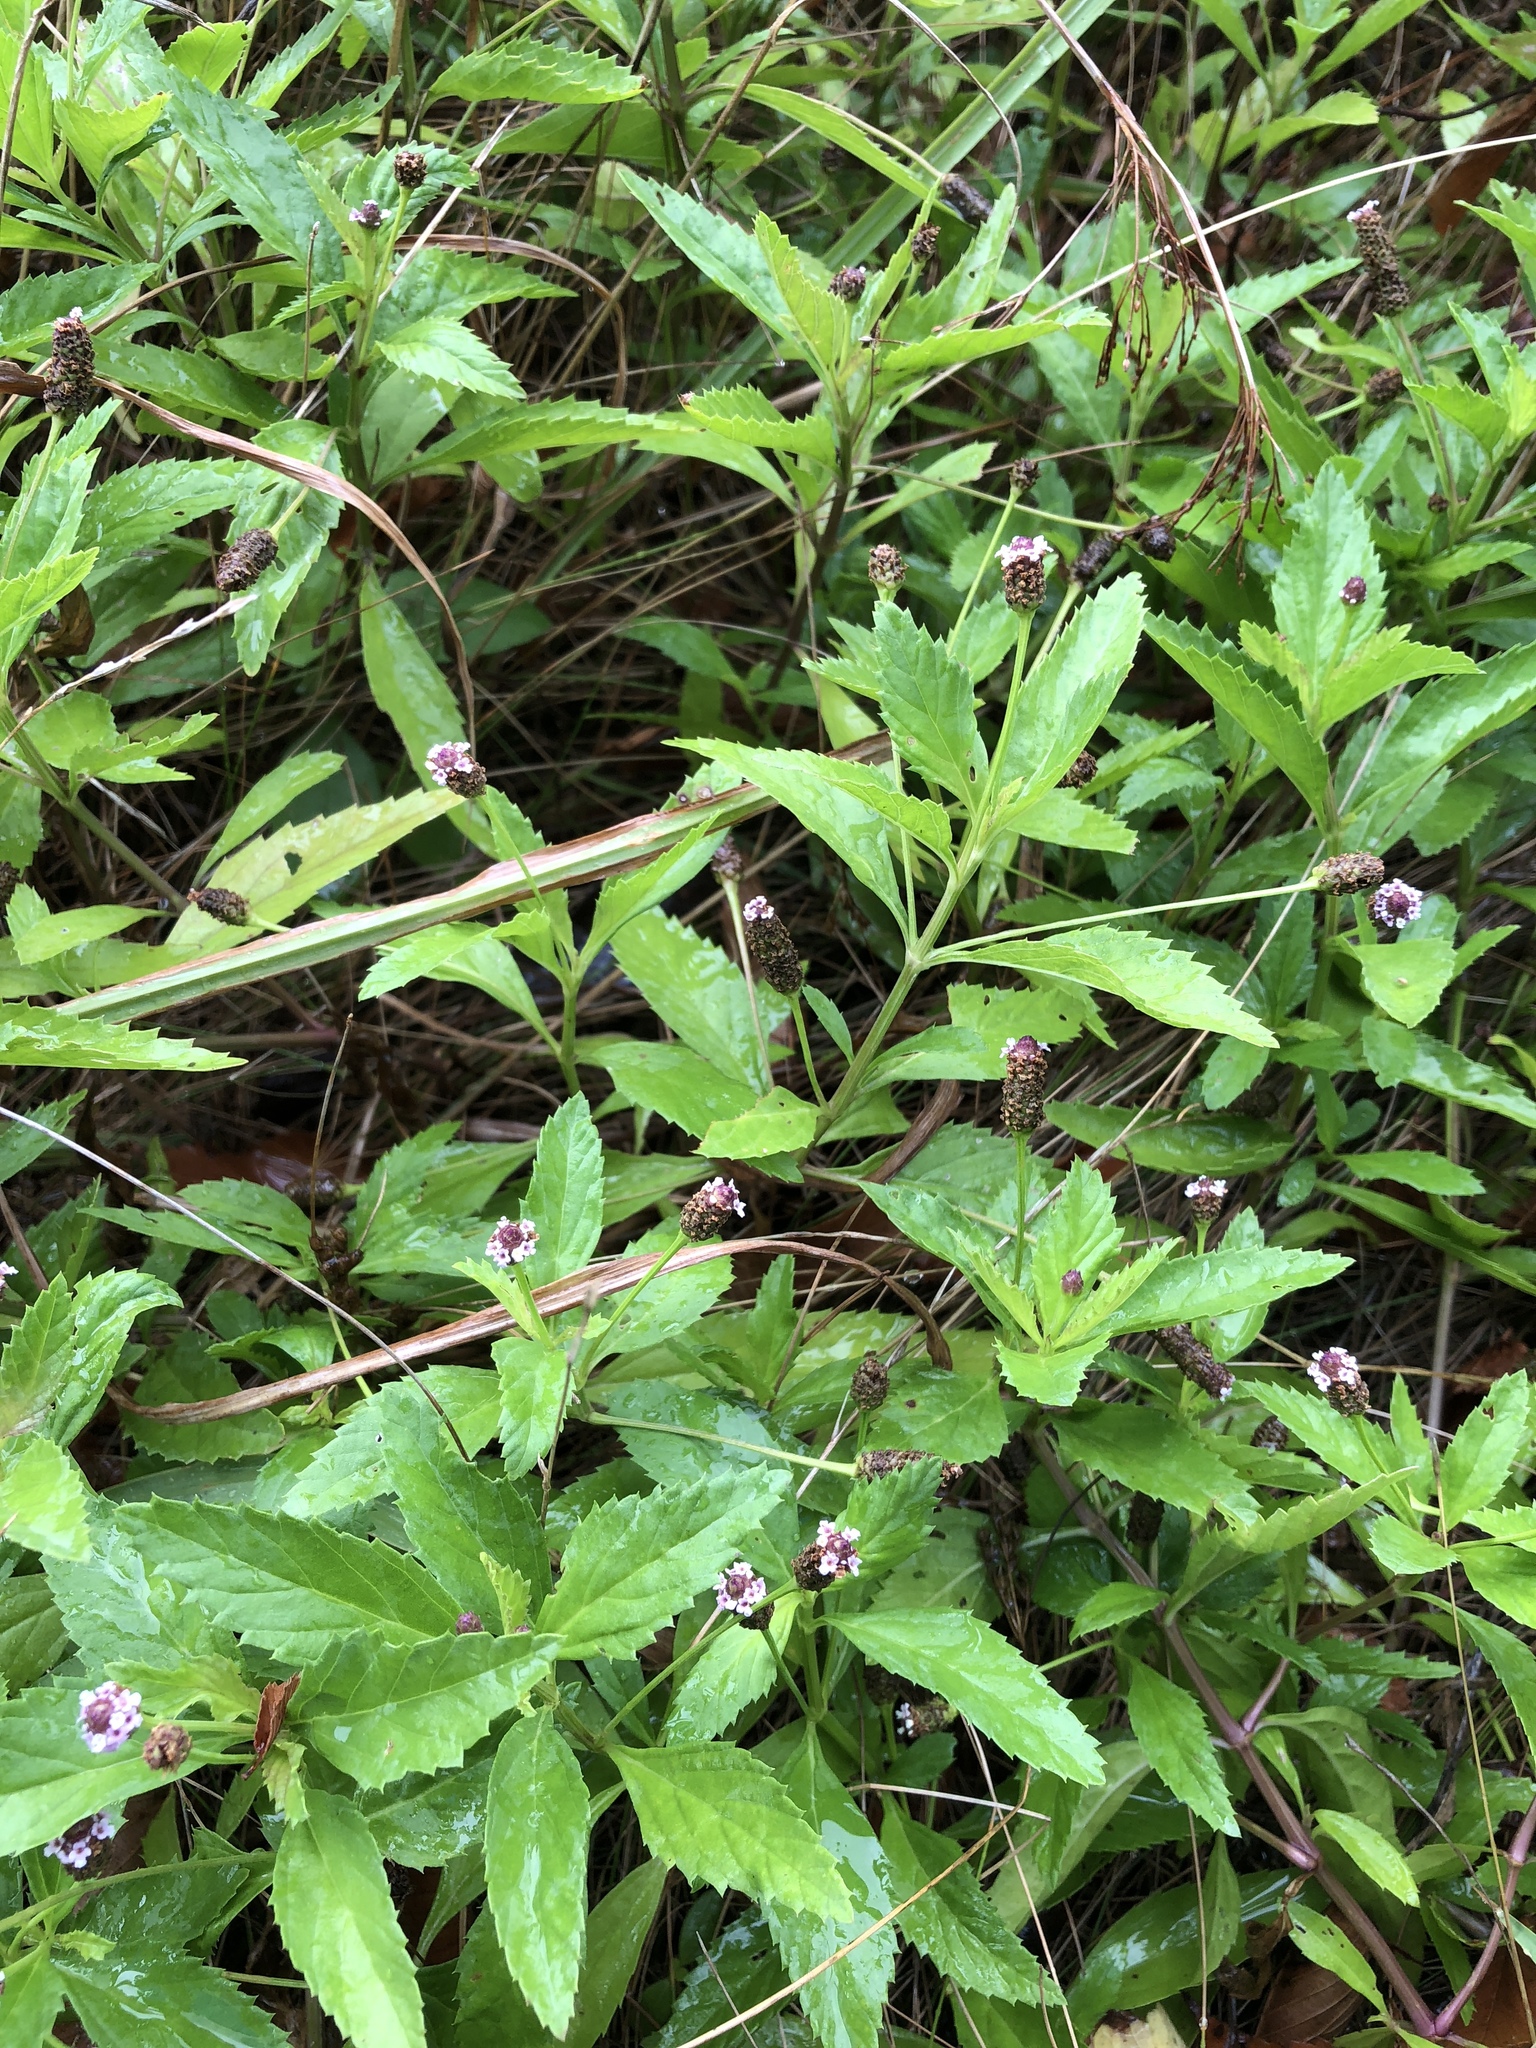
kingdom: Plantae
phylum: Tracheophyta
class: Magnoliopsida
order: Lamiales
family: Verbenaceae
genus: Phyla
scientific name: Phyla lanceolata
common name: Northern fogfruit
